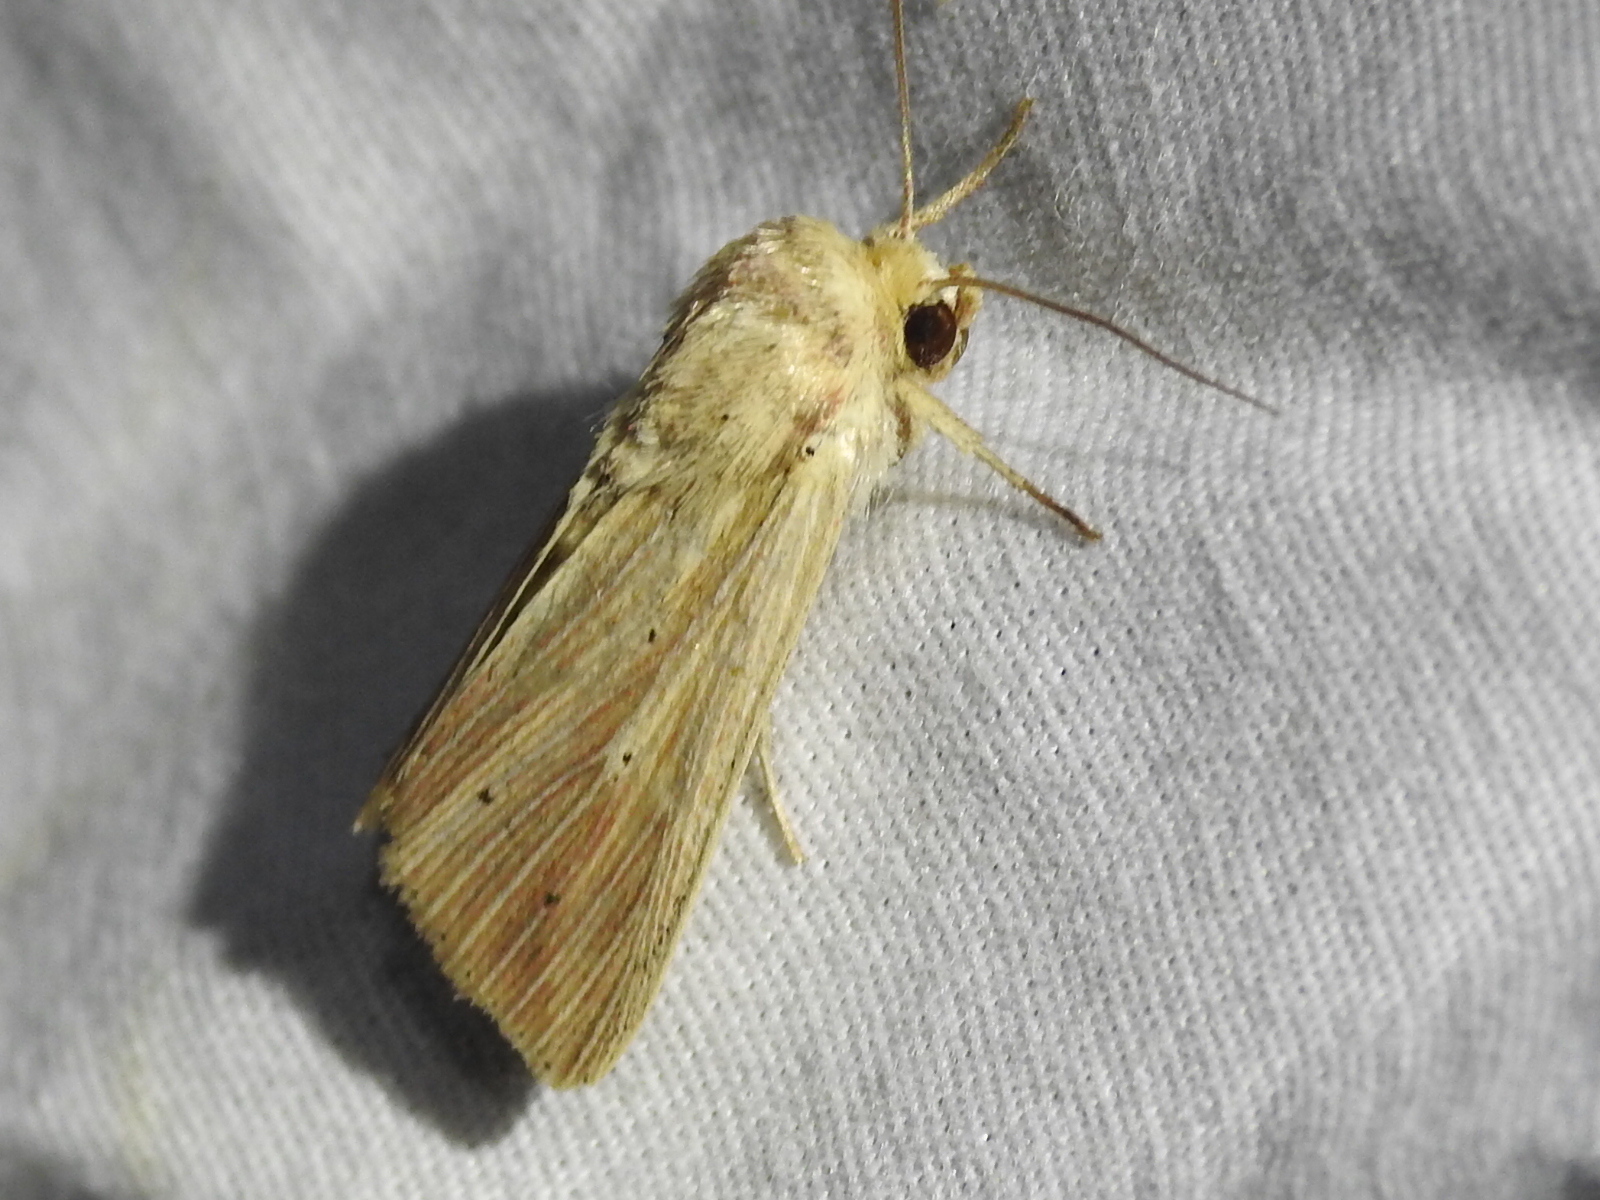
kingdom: Animalia
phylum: Arthropoda
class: Insecta
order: Lepidoptera
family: Noctuidae
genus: Leucania
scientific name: Leucania adjuta
